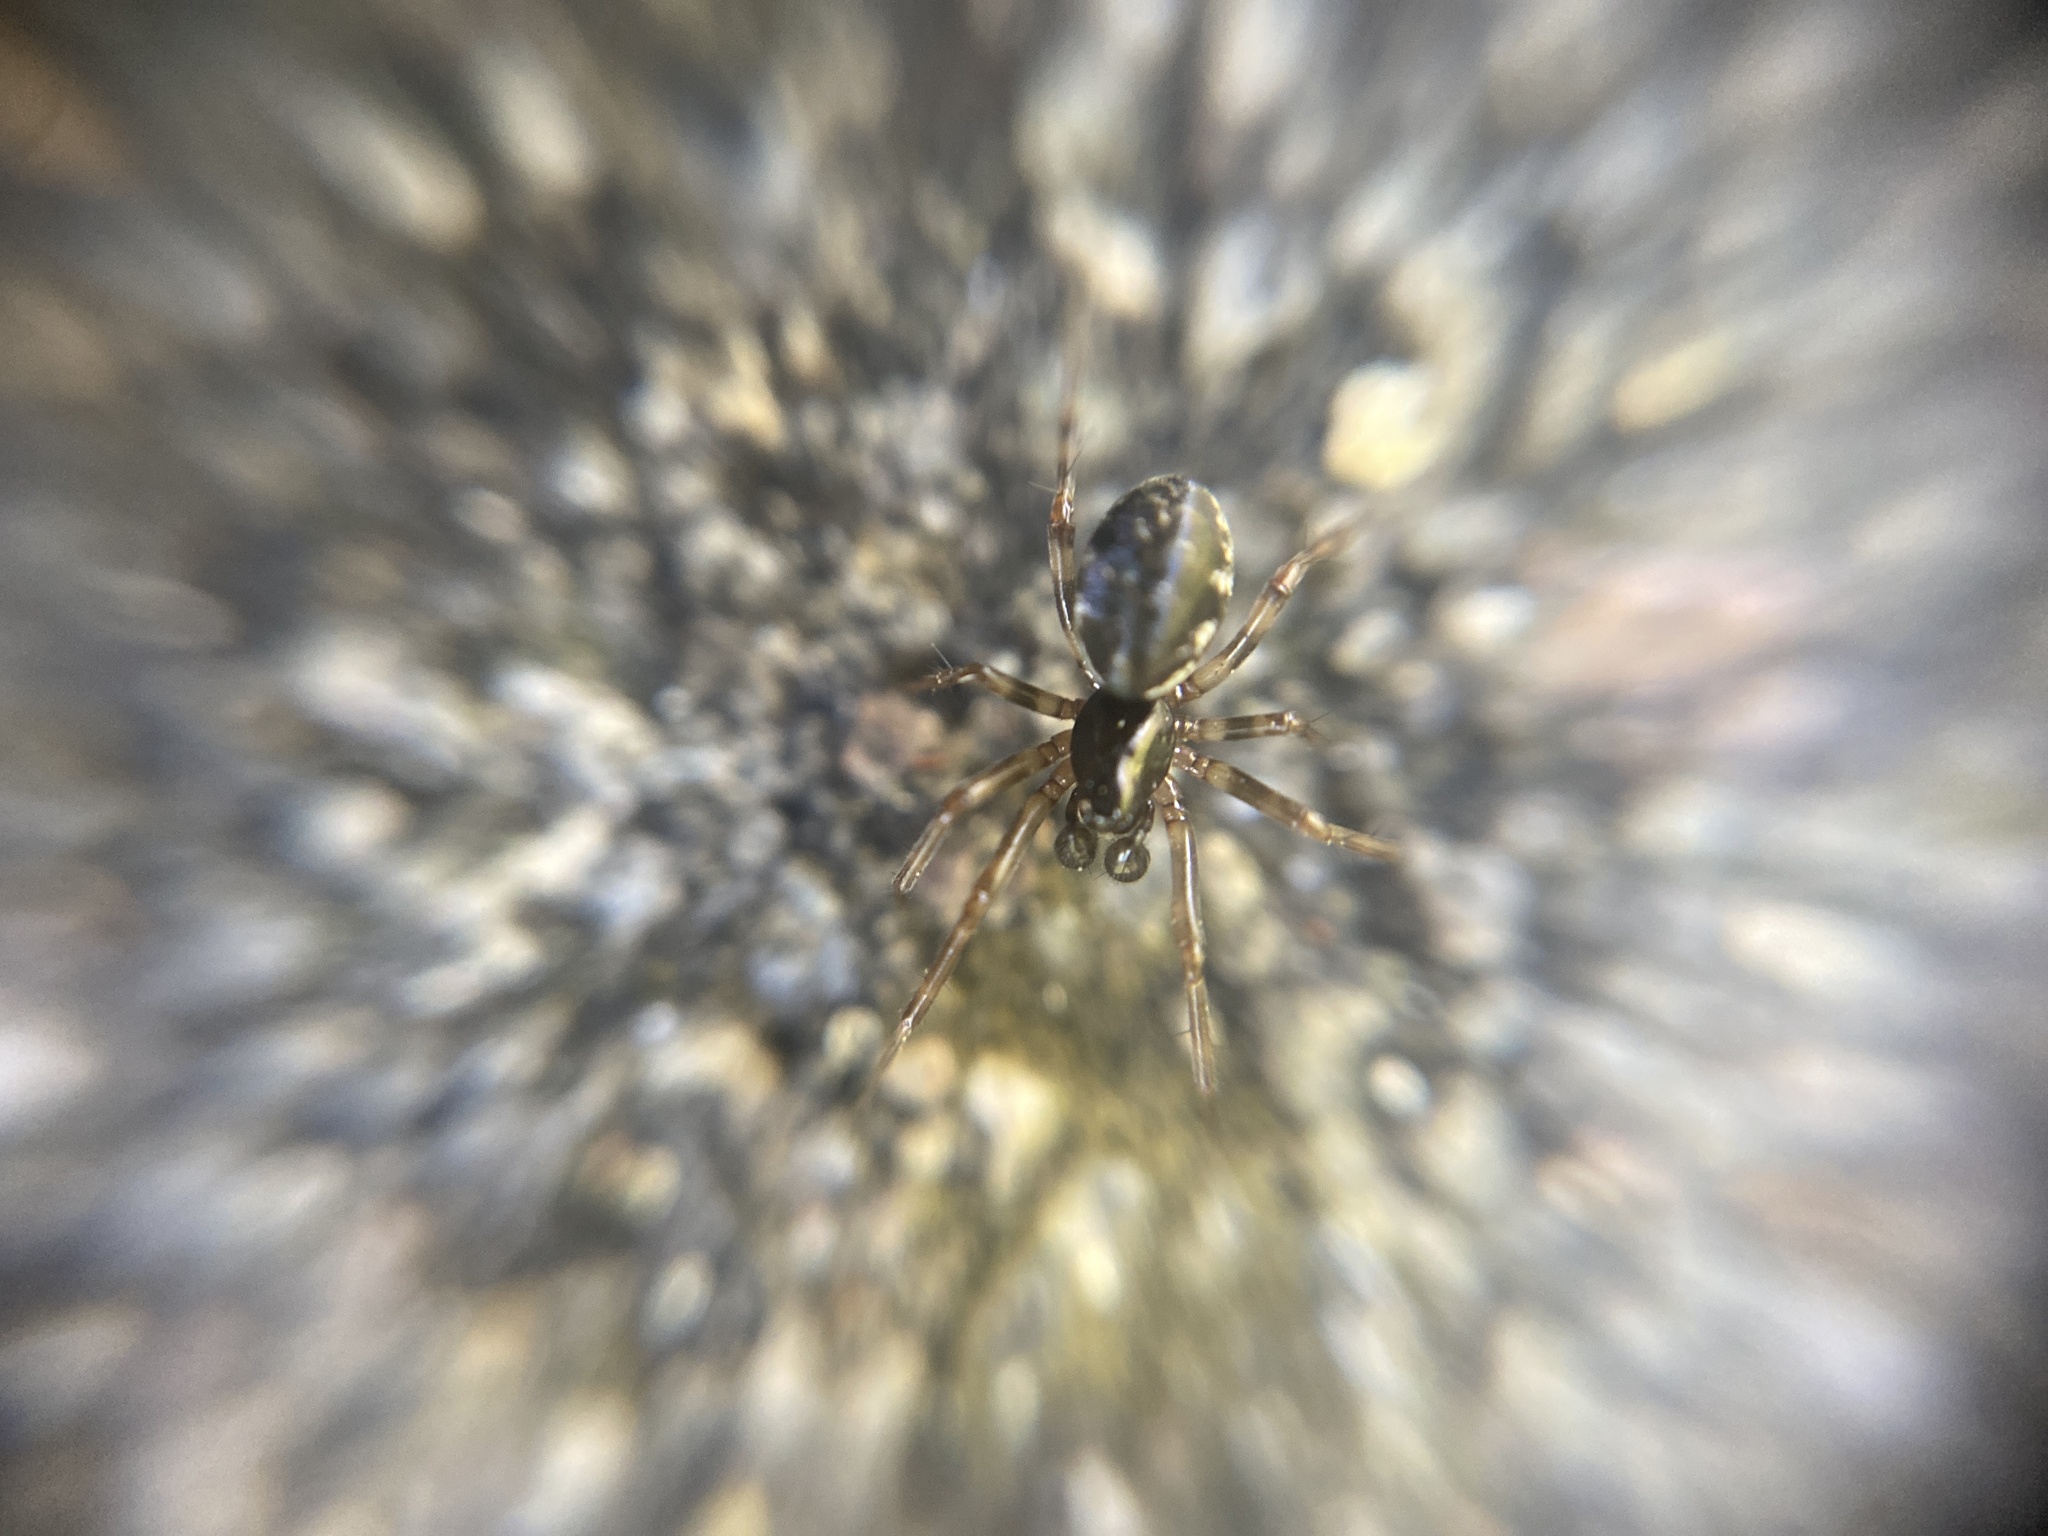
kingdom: Animalia
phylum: Arthropoda
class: Arachnida
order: Araneae
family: Linyphiidae
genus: Neriene
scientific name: Neriene clathrata
